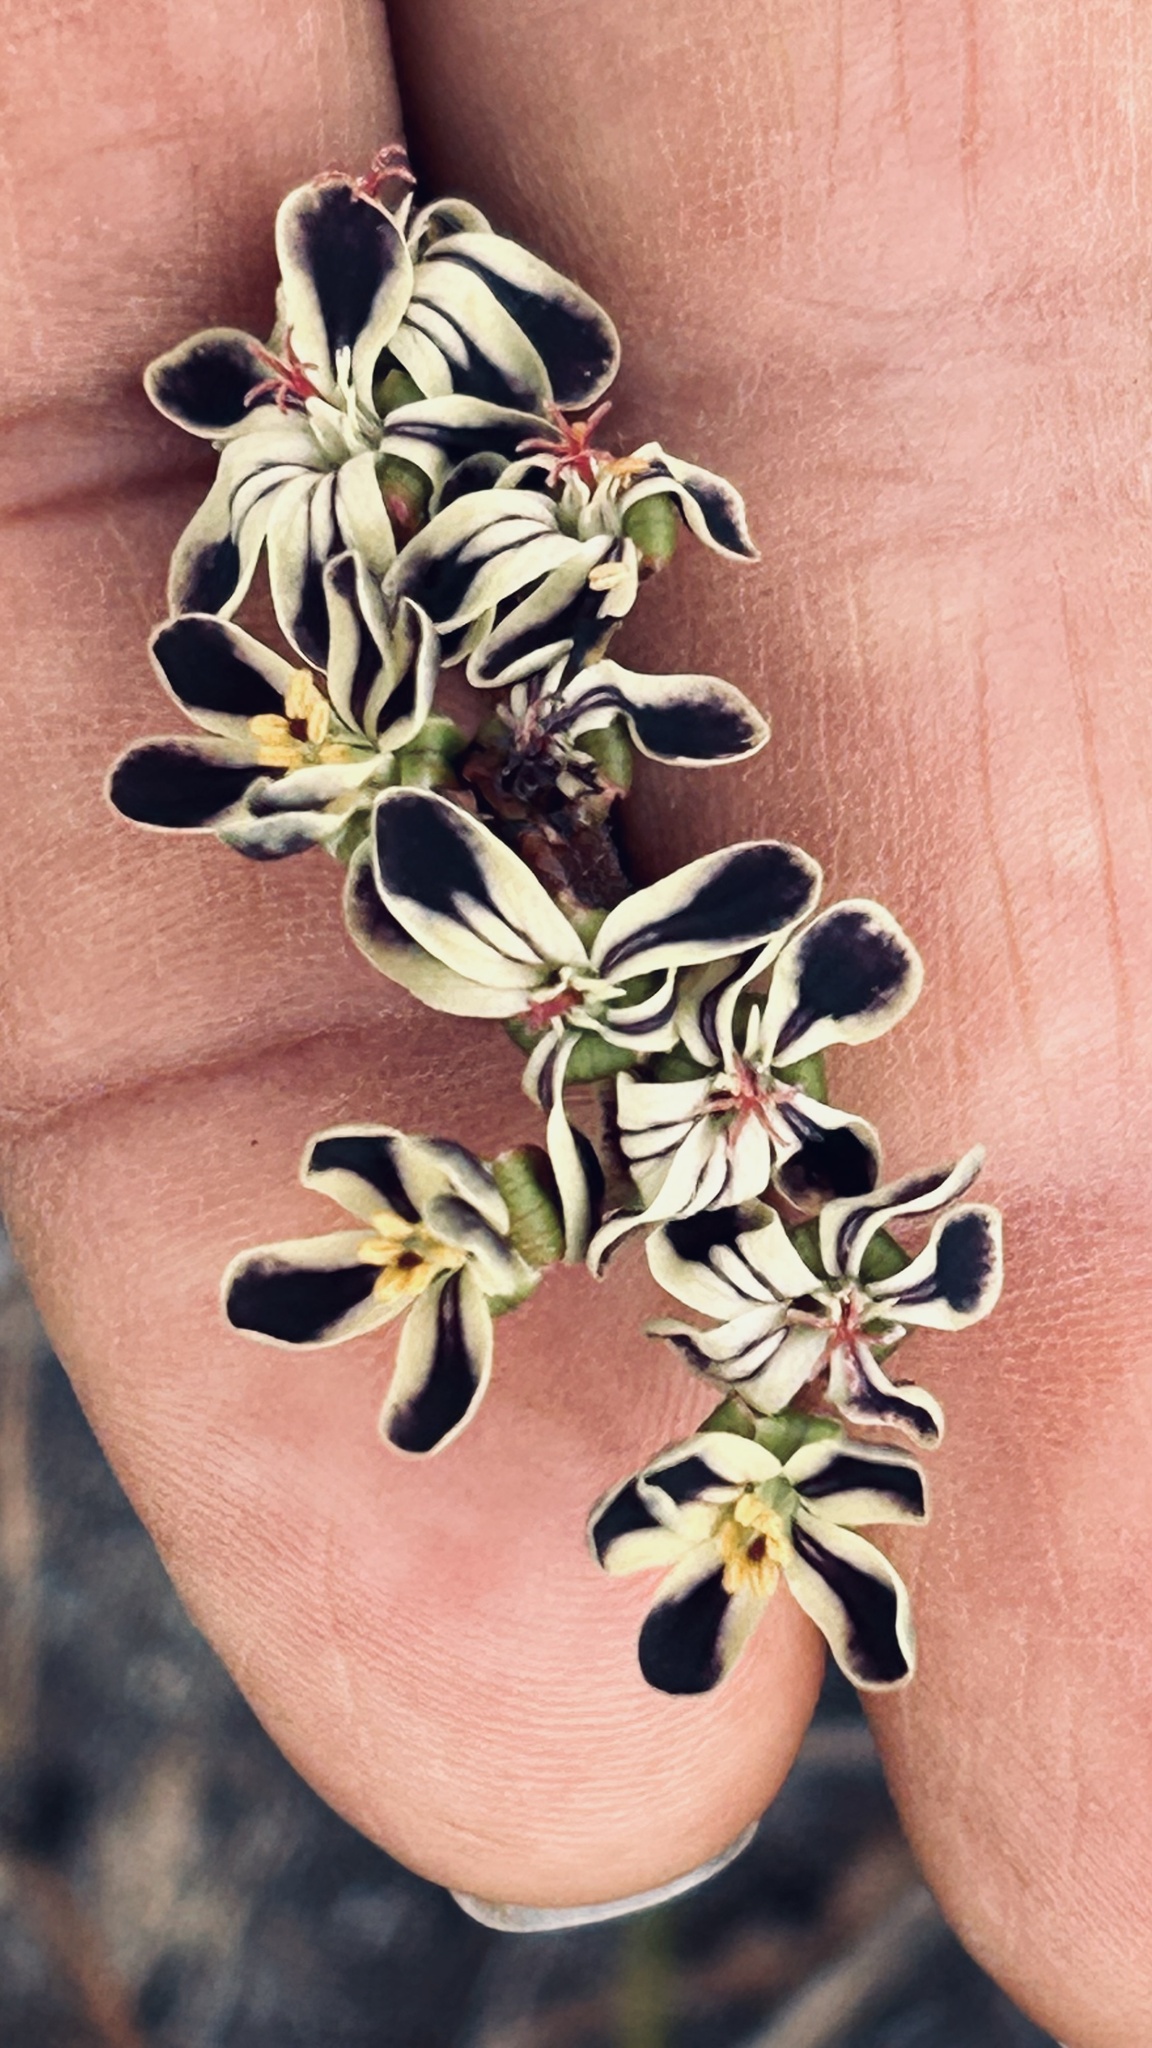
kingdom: Plantae
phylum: Tracheophyta
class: Magnoliopsida
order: Geraniales
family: Geraniaceae
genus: Pelargonium
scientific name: Pelargonium lobatum
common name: Vine-leaf pelargonium
